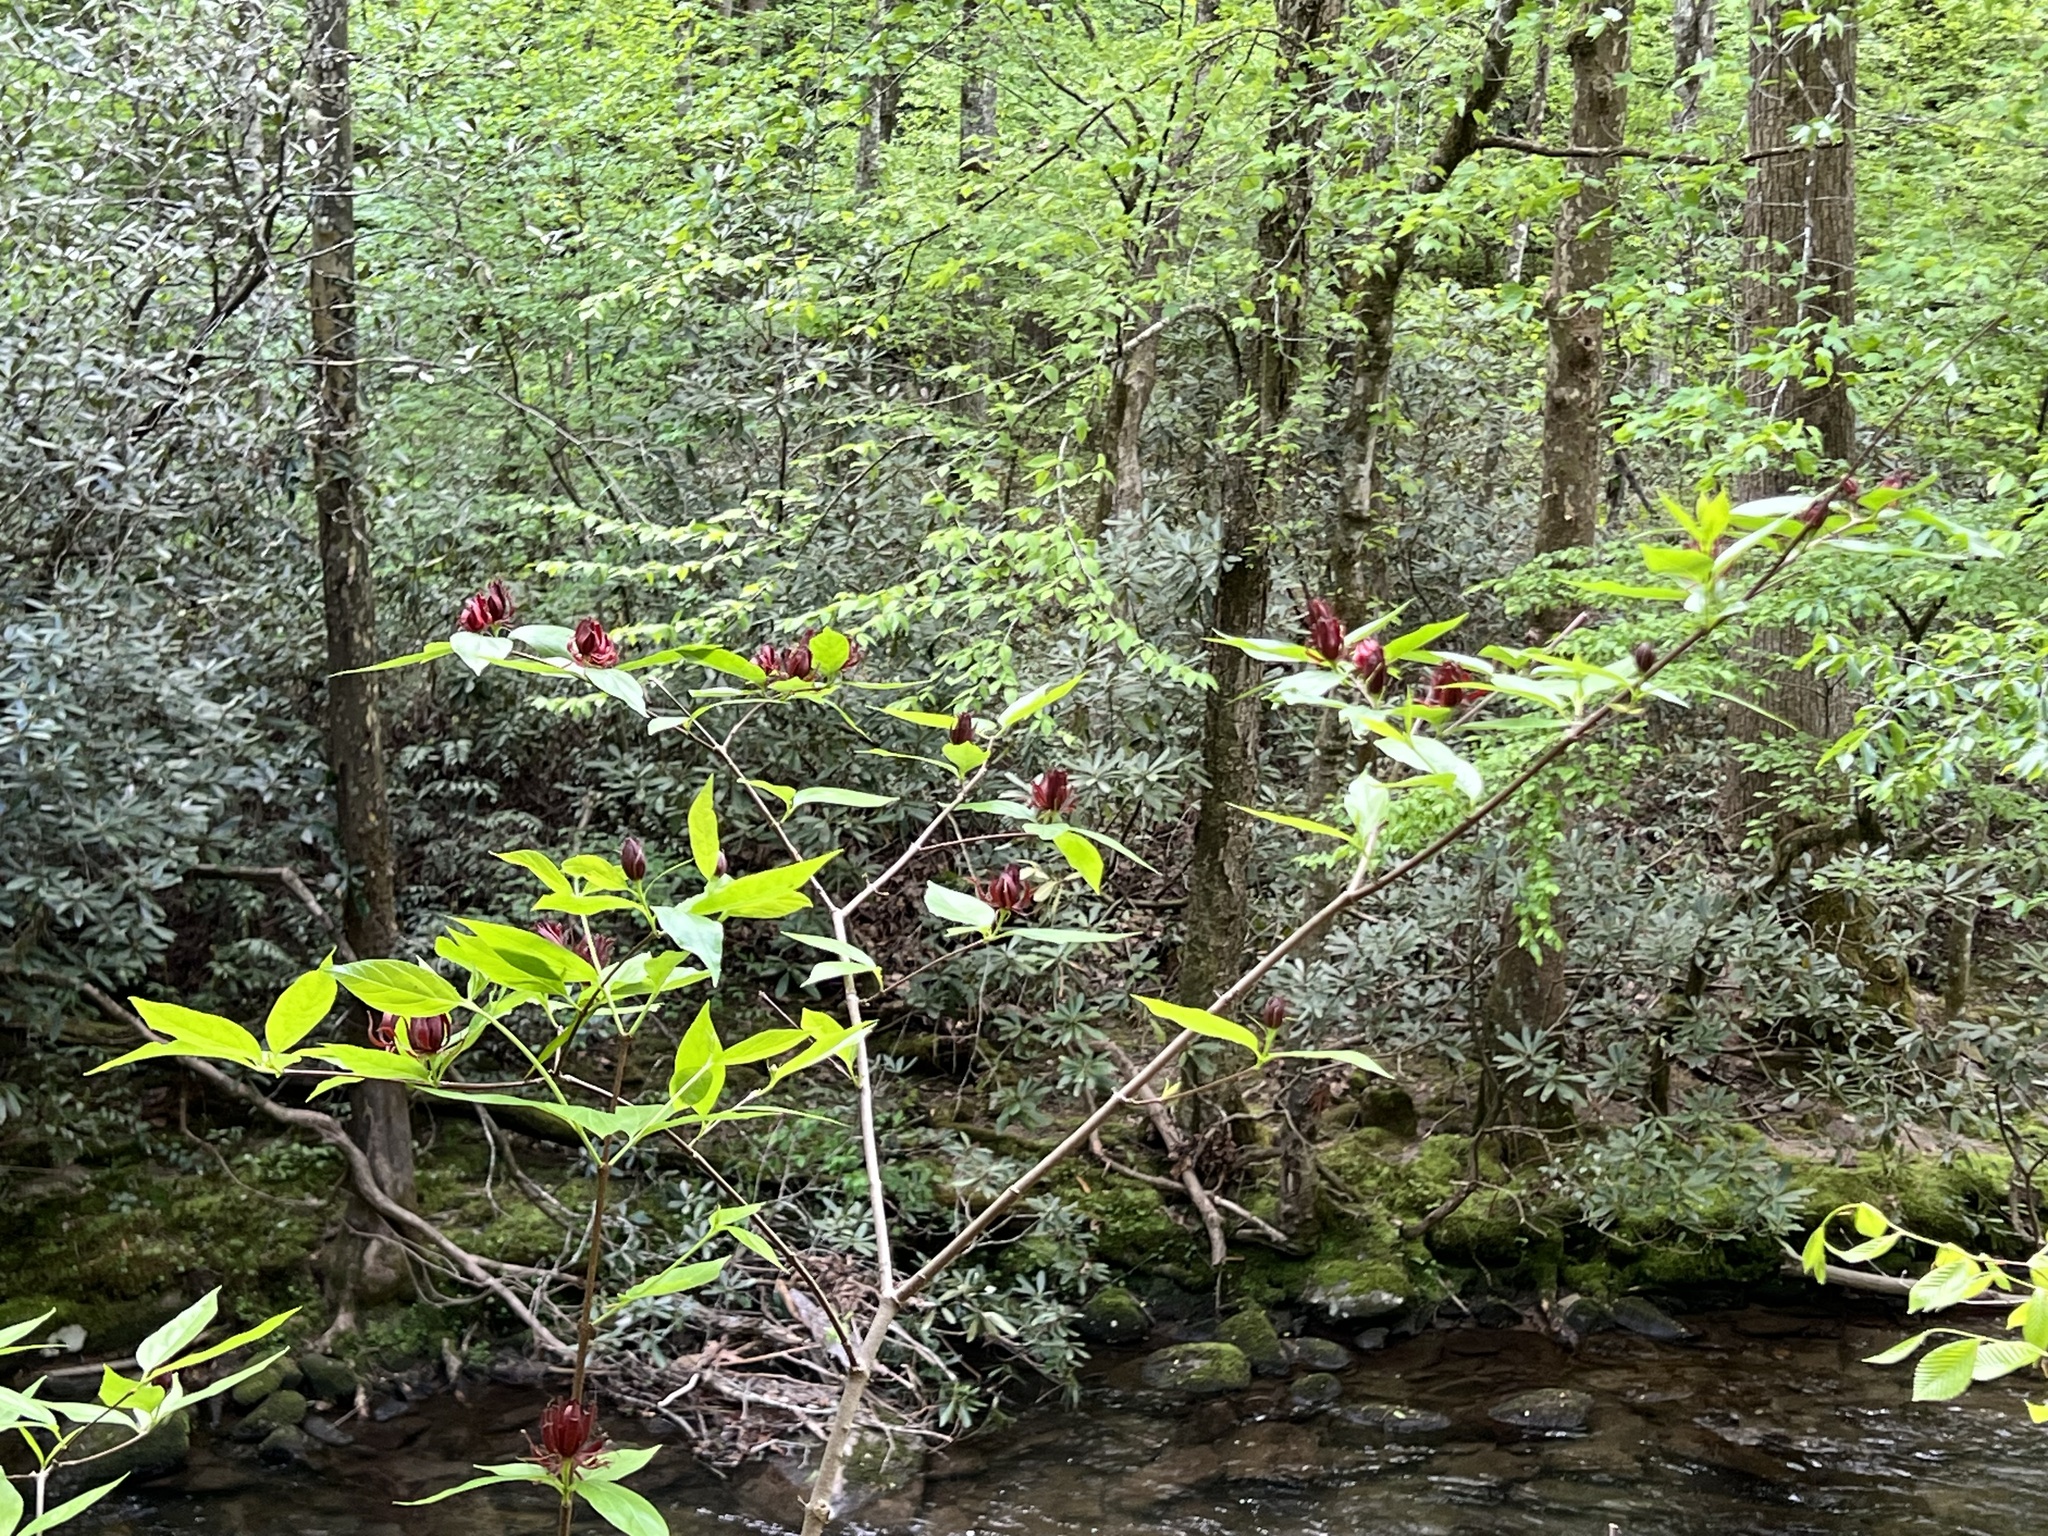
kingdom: Plantae
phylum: Tracheophyta
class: Magnoliopsida
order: Laurales
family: Calycanthaceae
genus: Calycanthus
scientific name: Calycanthus floridus
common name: Carolina-allspice
